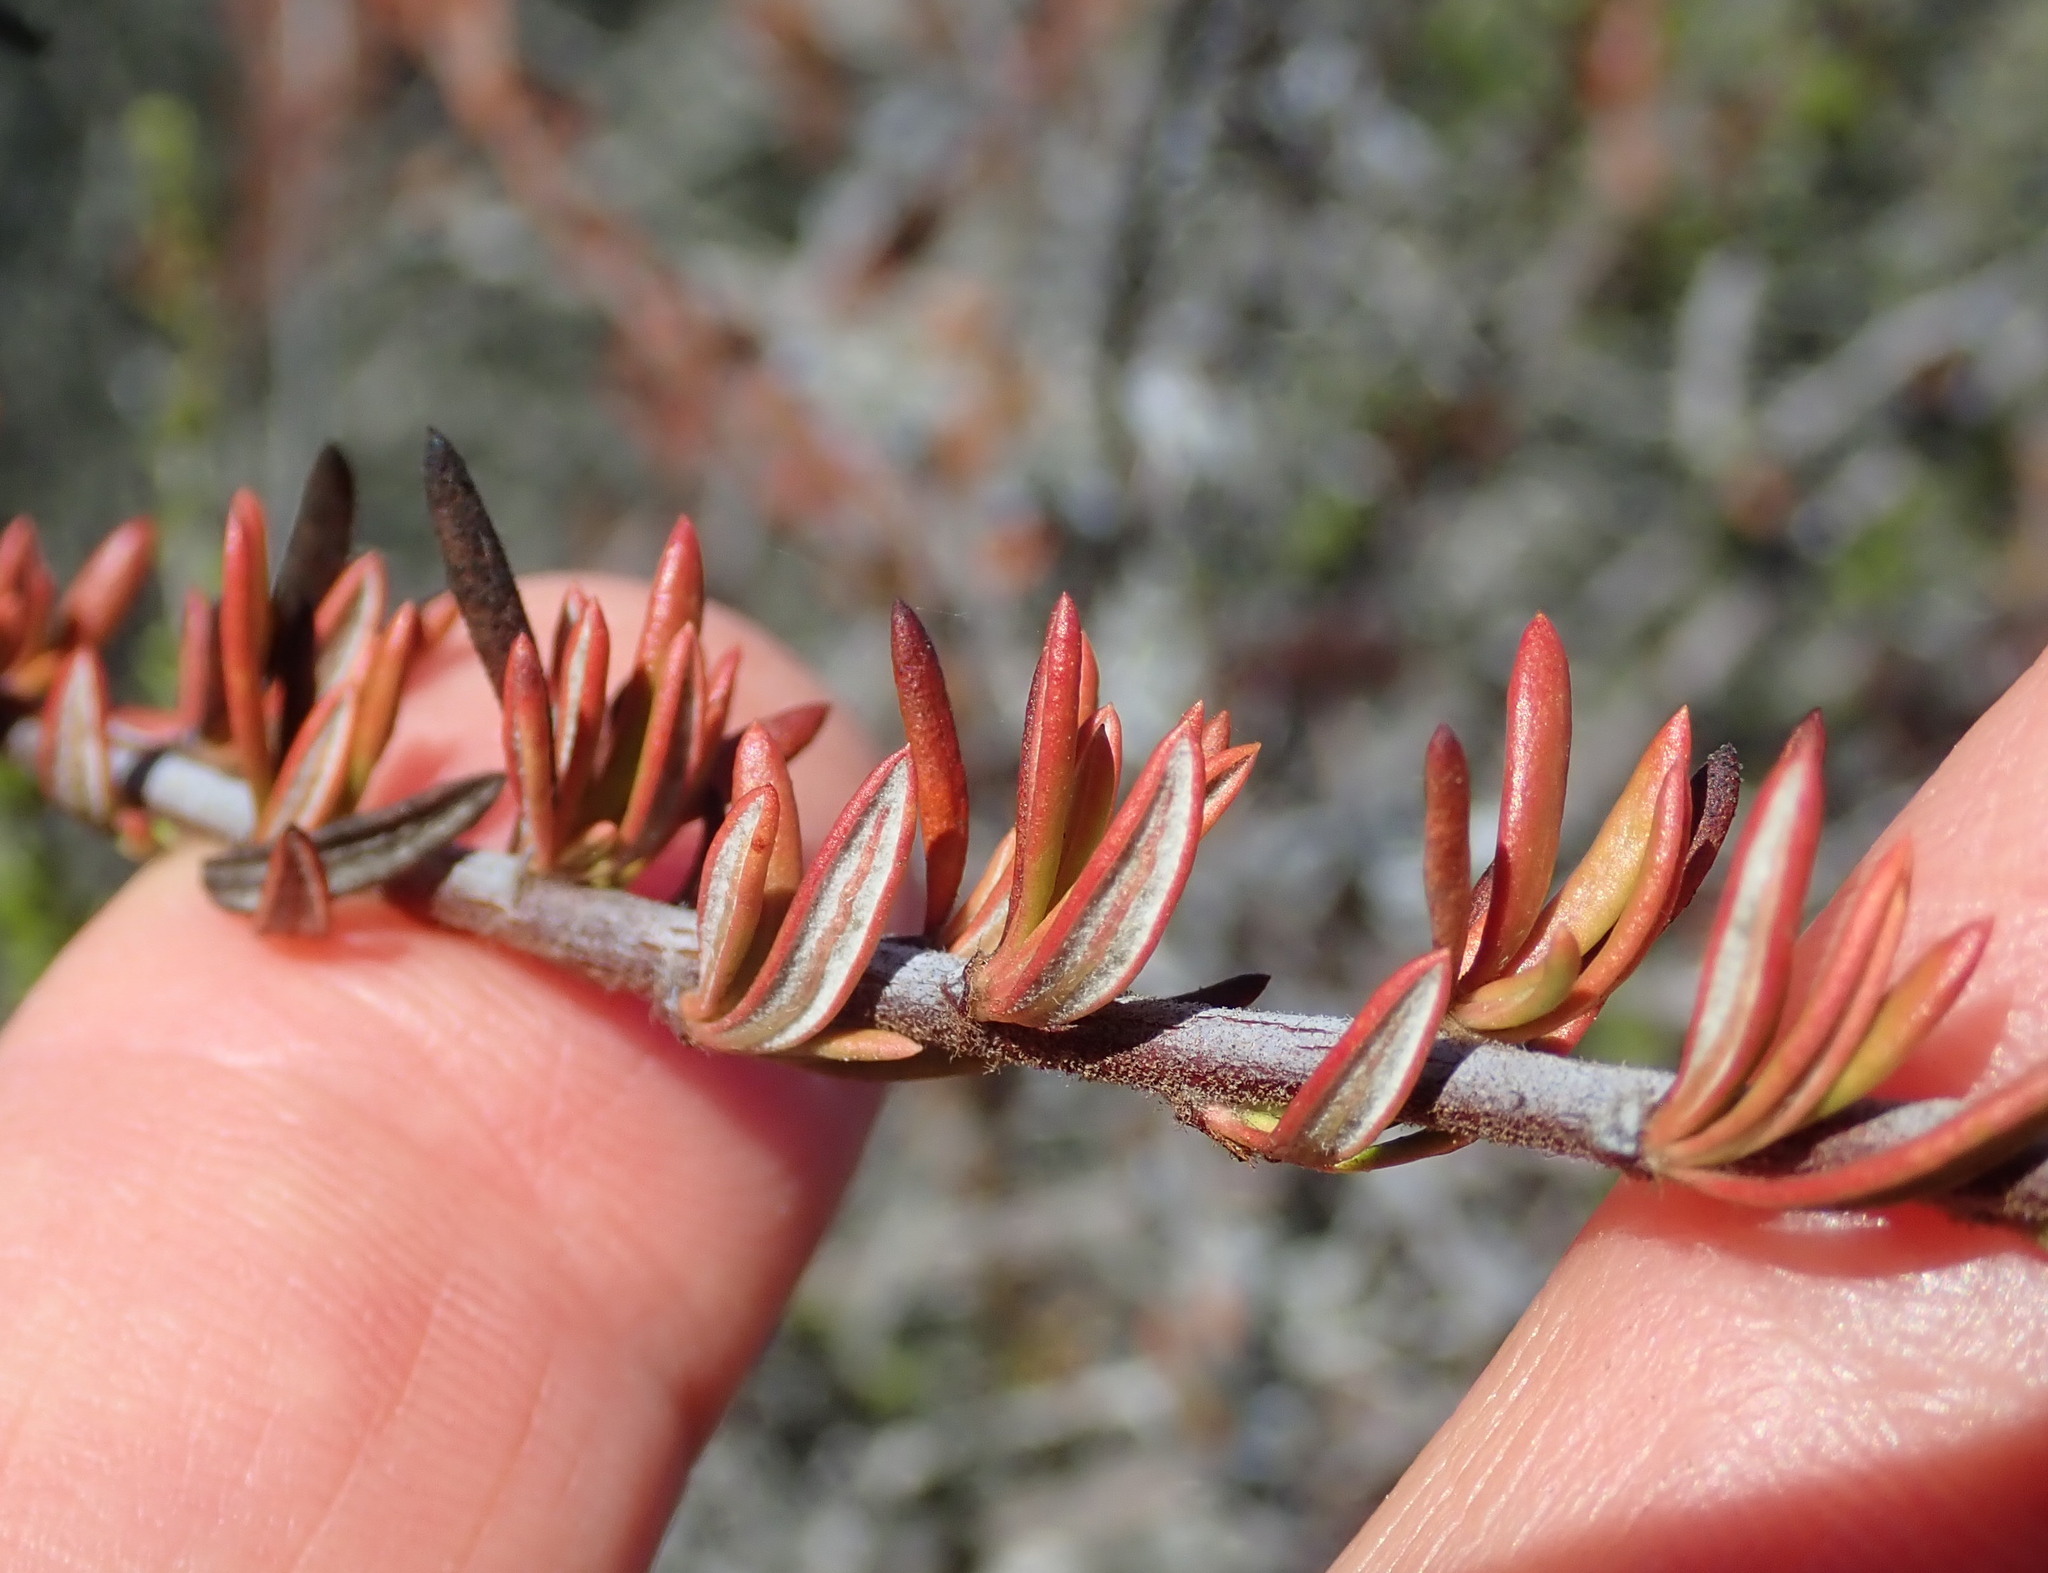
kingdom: Plantae
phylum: Tracheophyta
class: Magnoliopsida
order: Caryophyllales
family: Polygonaceae
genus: Eriogonum
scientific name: Eriogonum fasciculatum
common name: California wild buckwheat
